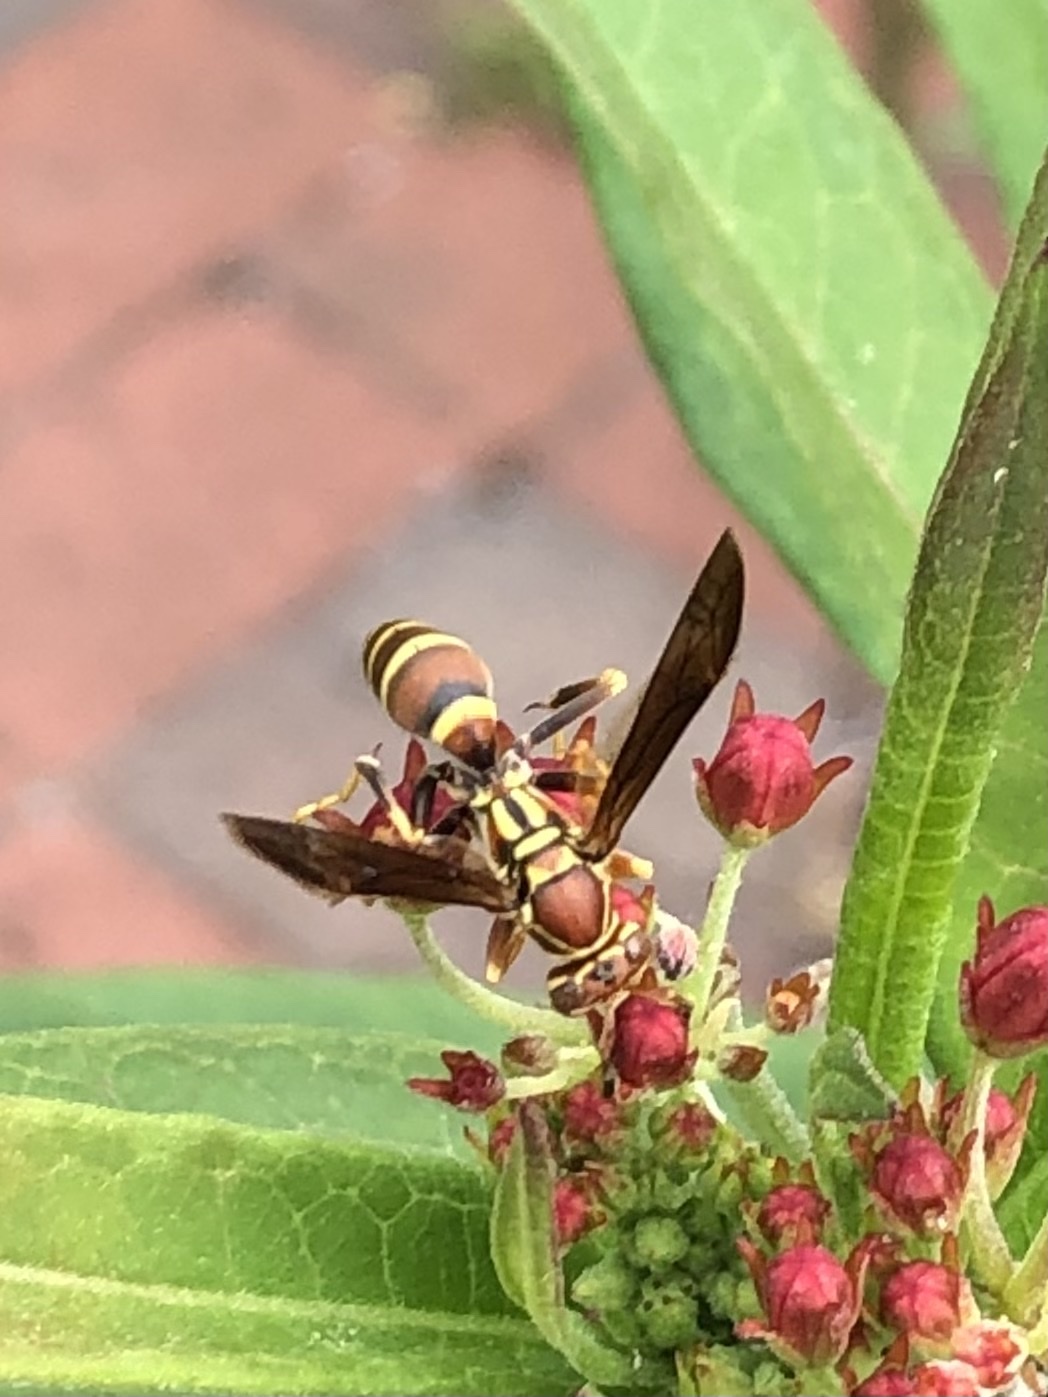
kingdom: Animalia
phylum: Arthropoda
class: Insecta
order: Hymenoptera
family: Eumenidae
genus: Polistes
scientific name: Polistes dorsalis
